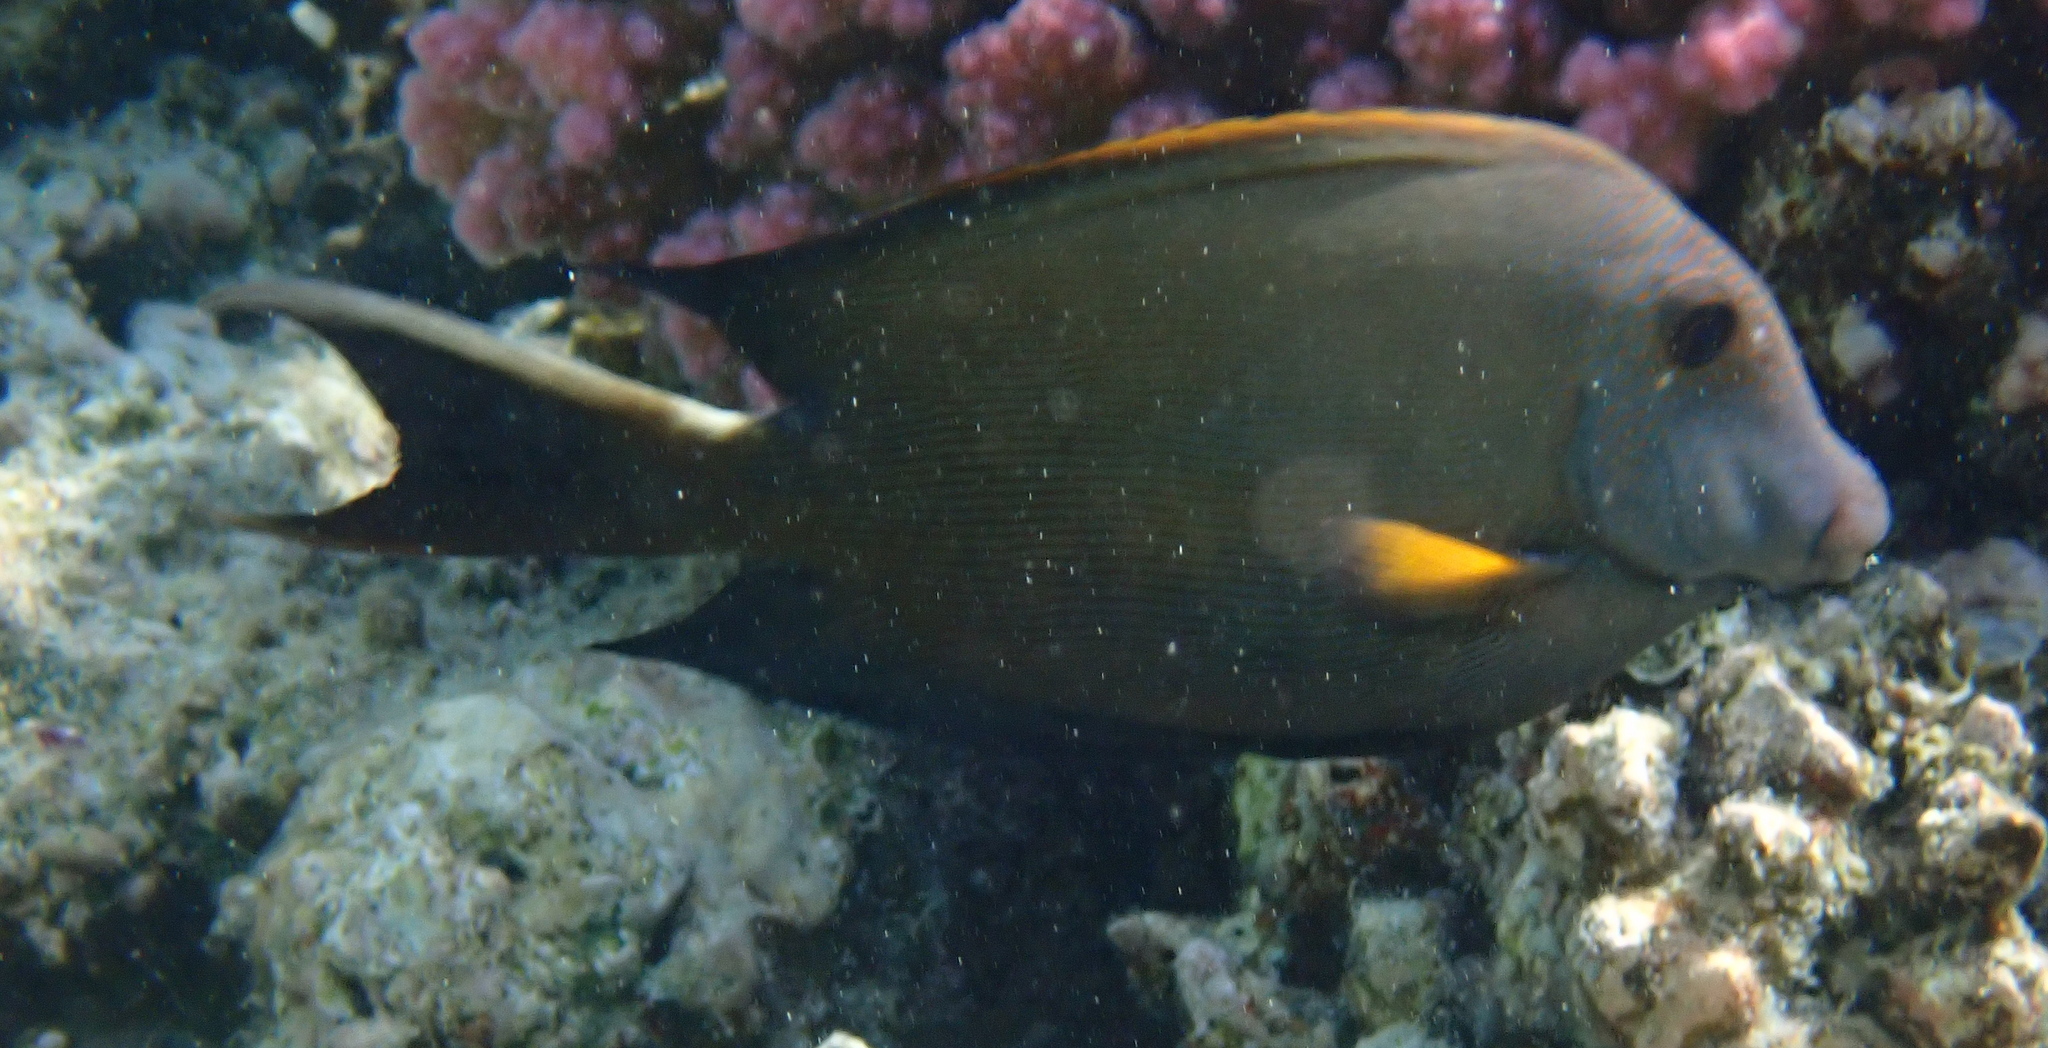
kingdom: Animalia
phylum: Chordata
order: Perciformes
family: Acanthuridae
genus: Ctenochaetus
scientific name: Ctenochaetus striatus
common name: Bristle-toothed surgeonfish
